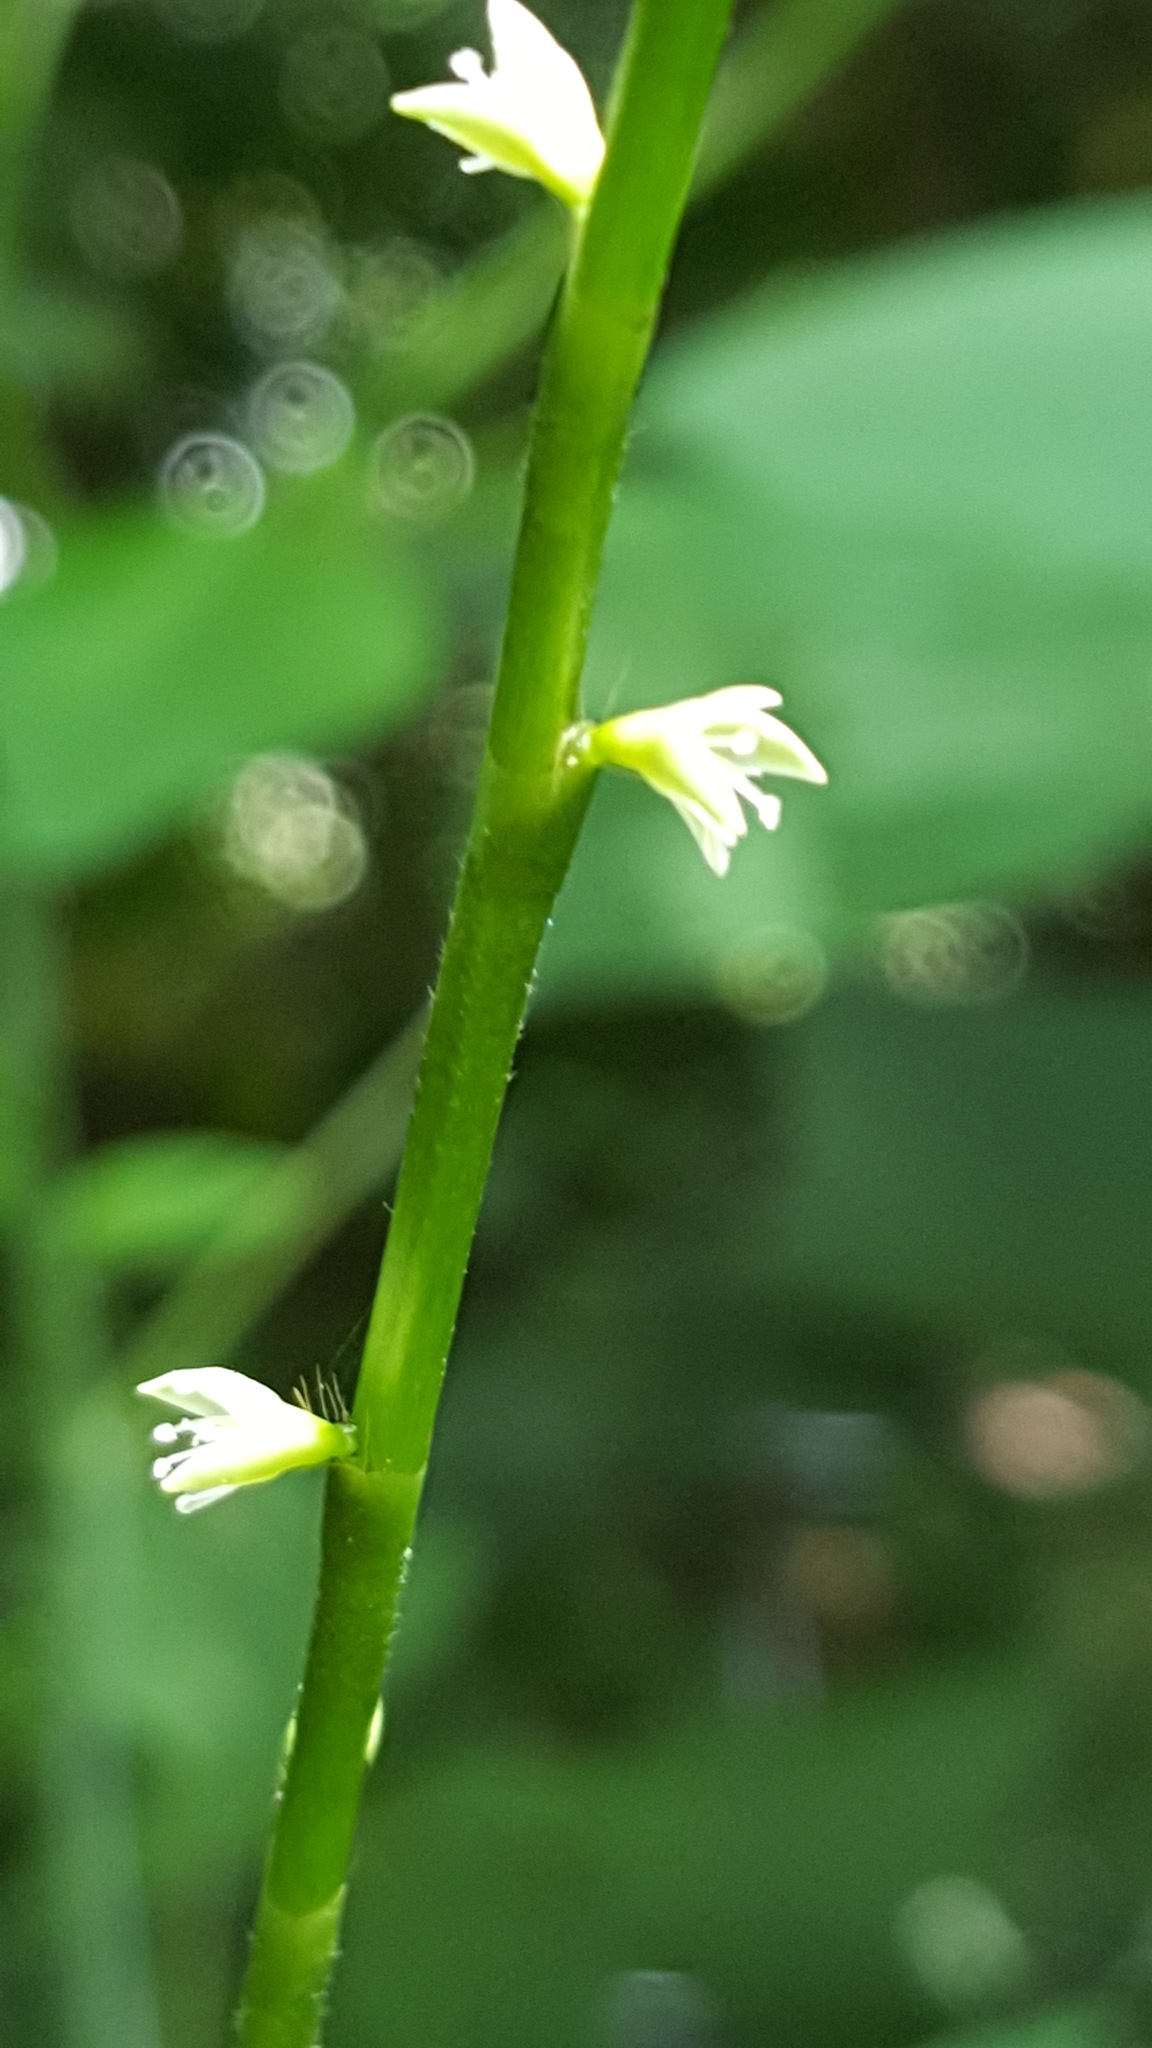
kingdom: Plantae
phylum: Tracheophyta
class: Magnoliopsida
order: Caryophyllales
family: Polygonaceae
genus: Persicaria
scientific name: Persicaria virginiana
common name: Jumpseed
